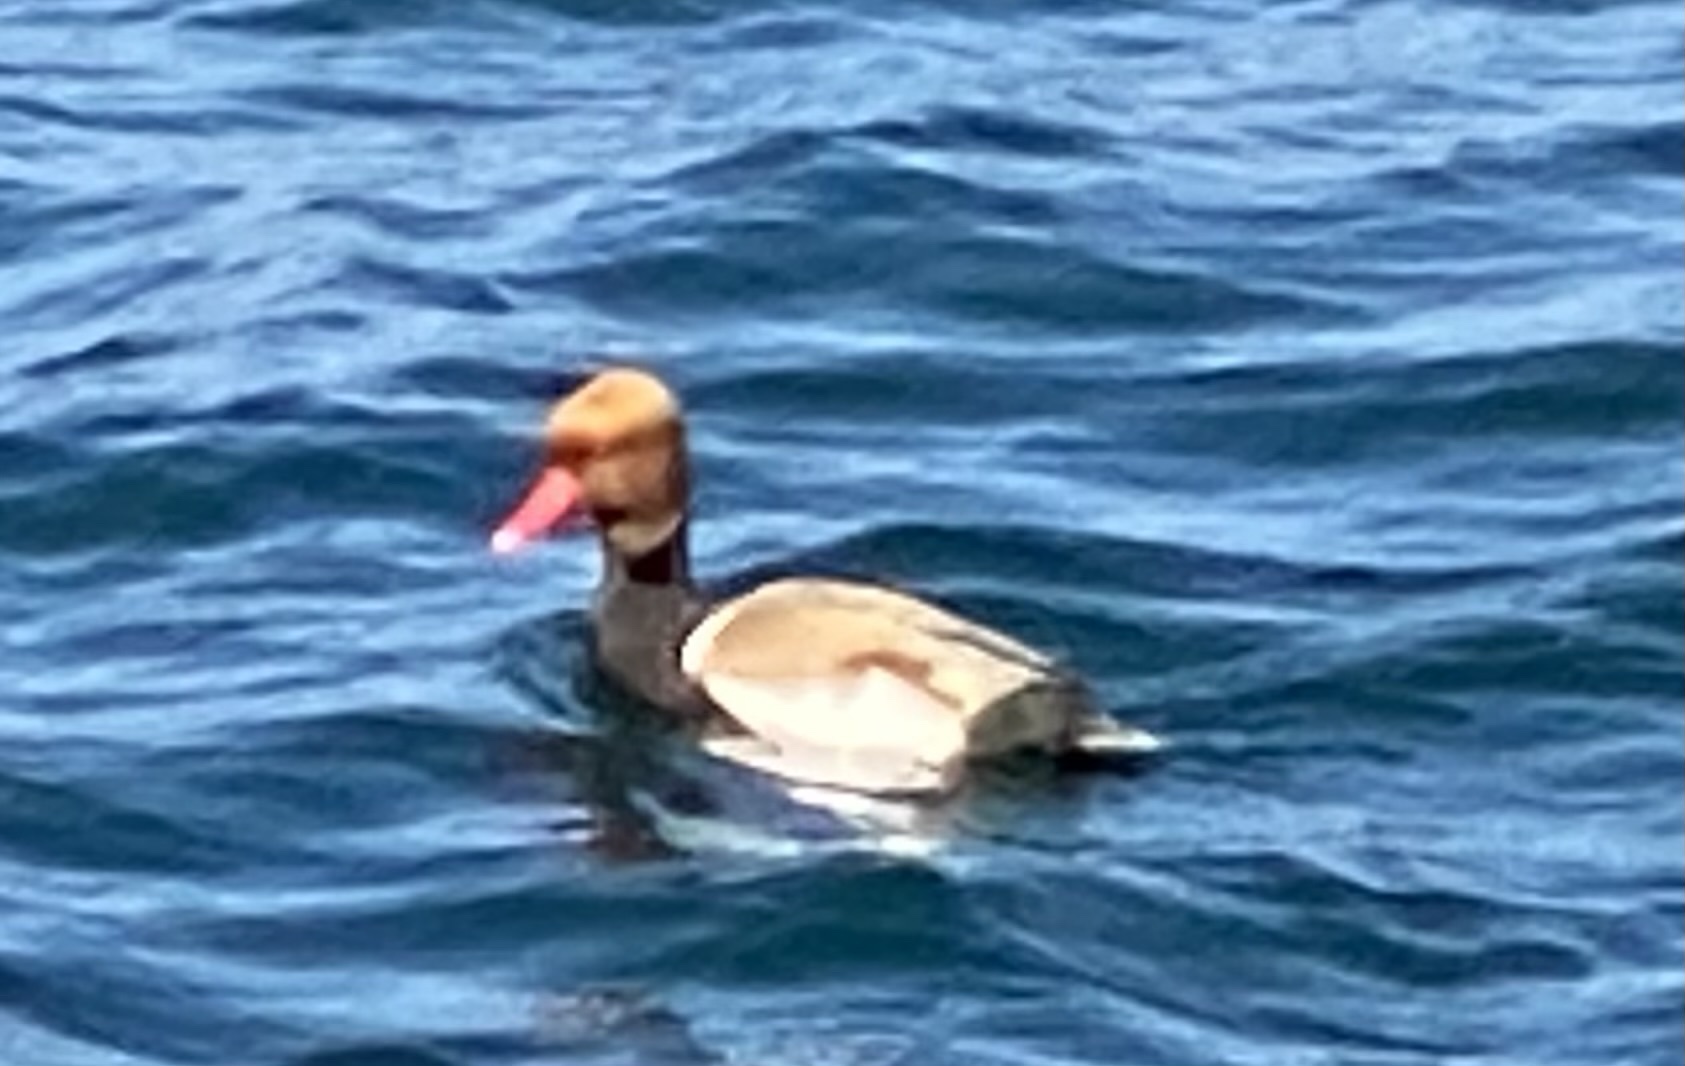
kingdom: Animalia
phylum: Chordata
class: Aves
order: Anseriformes
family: Anatidae
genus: Netta
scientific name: Netta rufina
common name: Red-crested pochard
